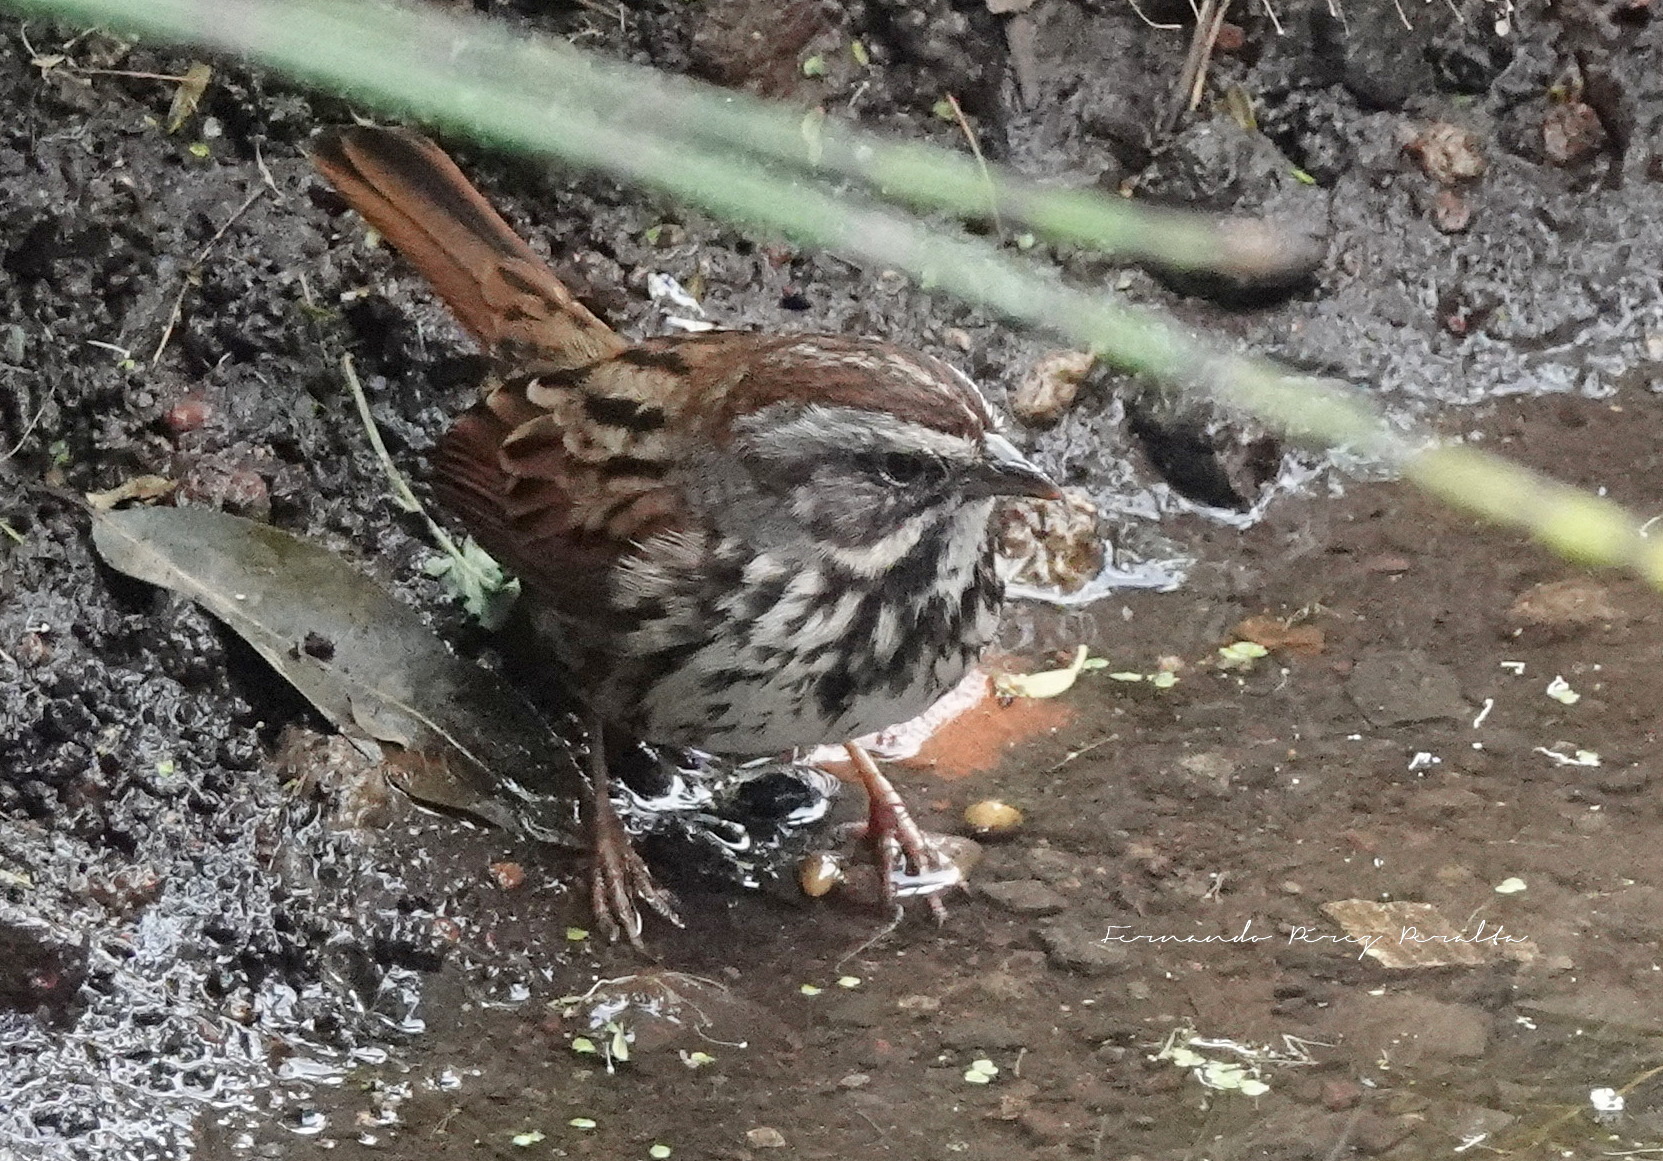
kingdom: Animalia
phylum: Chordata
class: Aves
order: Passeriformes
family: Passerellidae
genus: Melospiza
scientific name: Melospiza melodia
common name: Song sparrow
